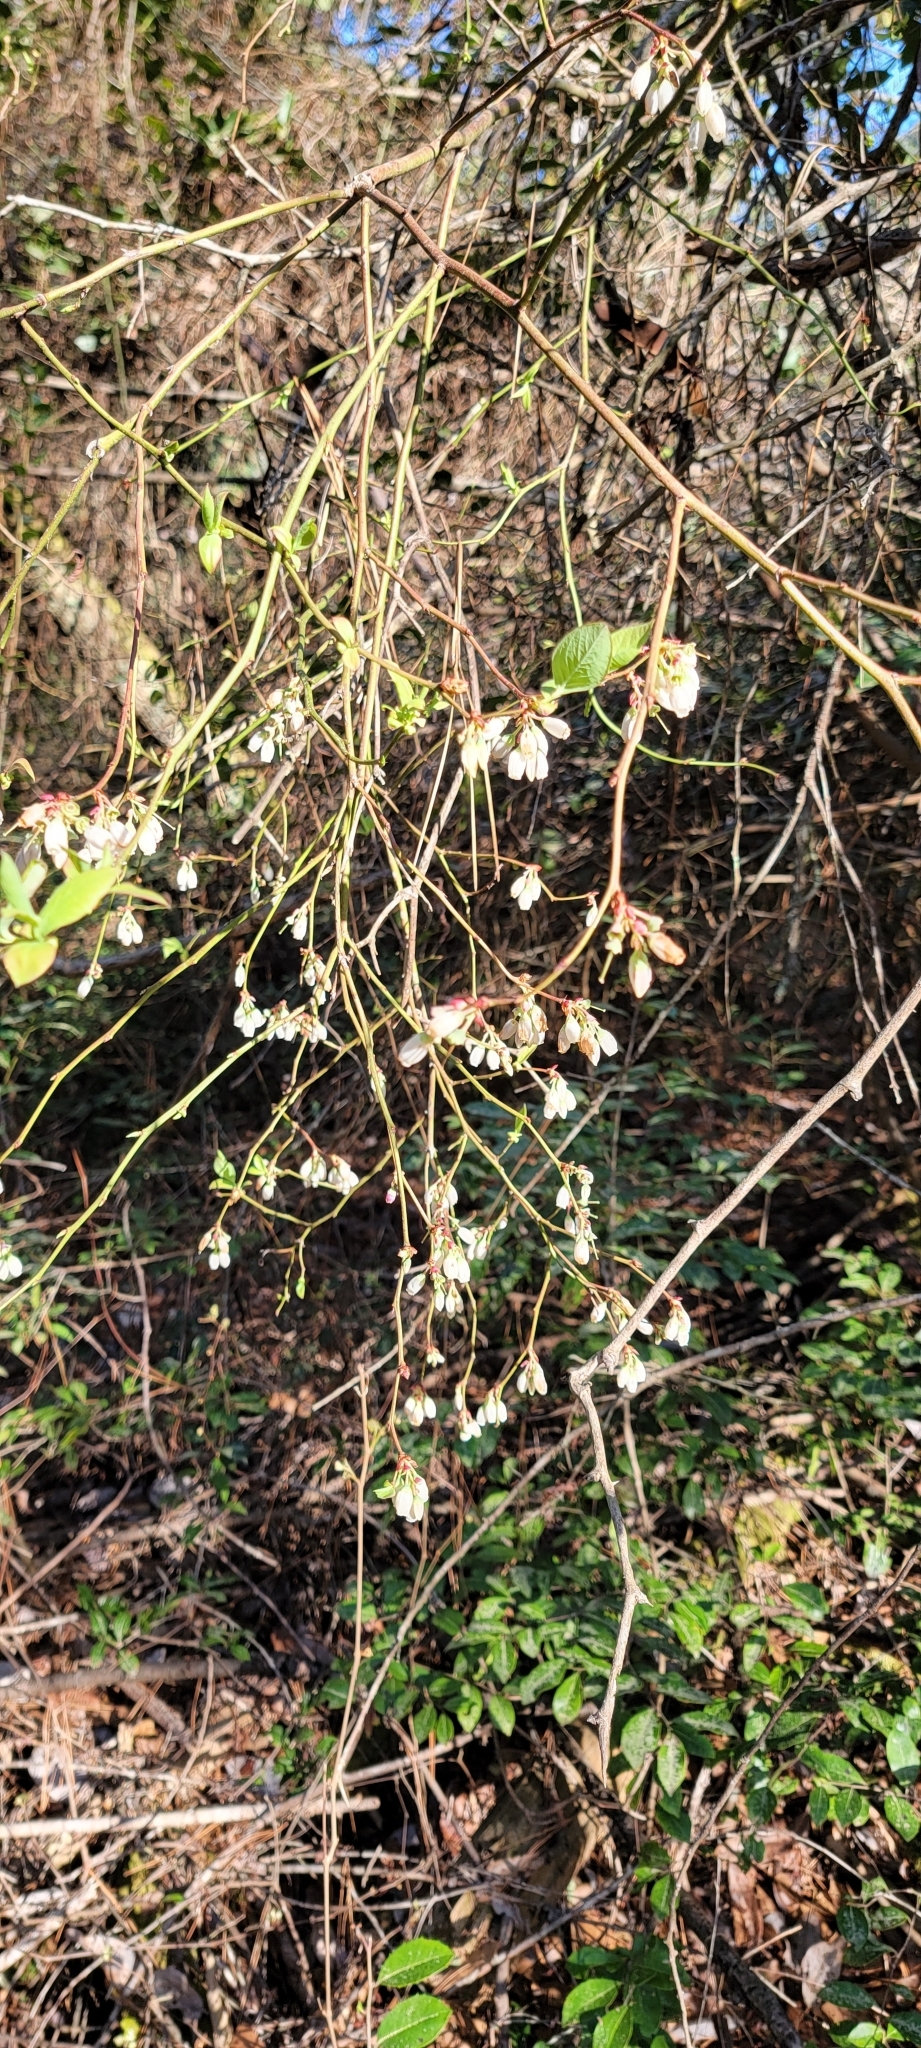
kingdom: Plantae
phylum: Tracheophyta
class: Magnoliopsida
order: Ericales
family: Ericaceae
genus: Vaccinium
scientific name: Vaccinium corymbosum
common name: Blueberry
